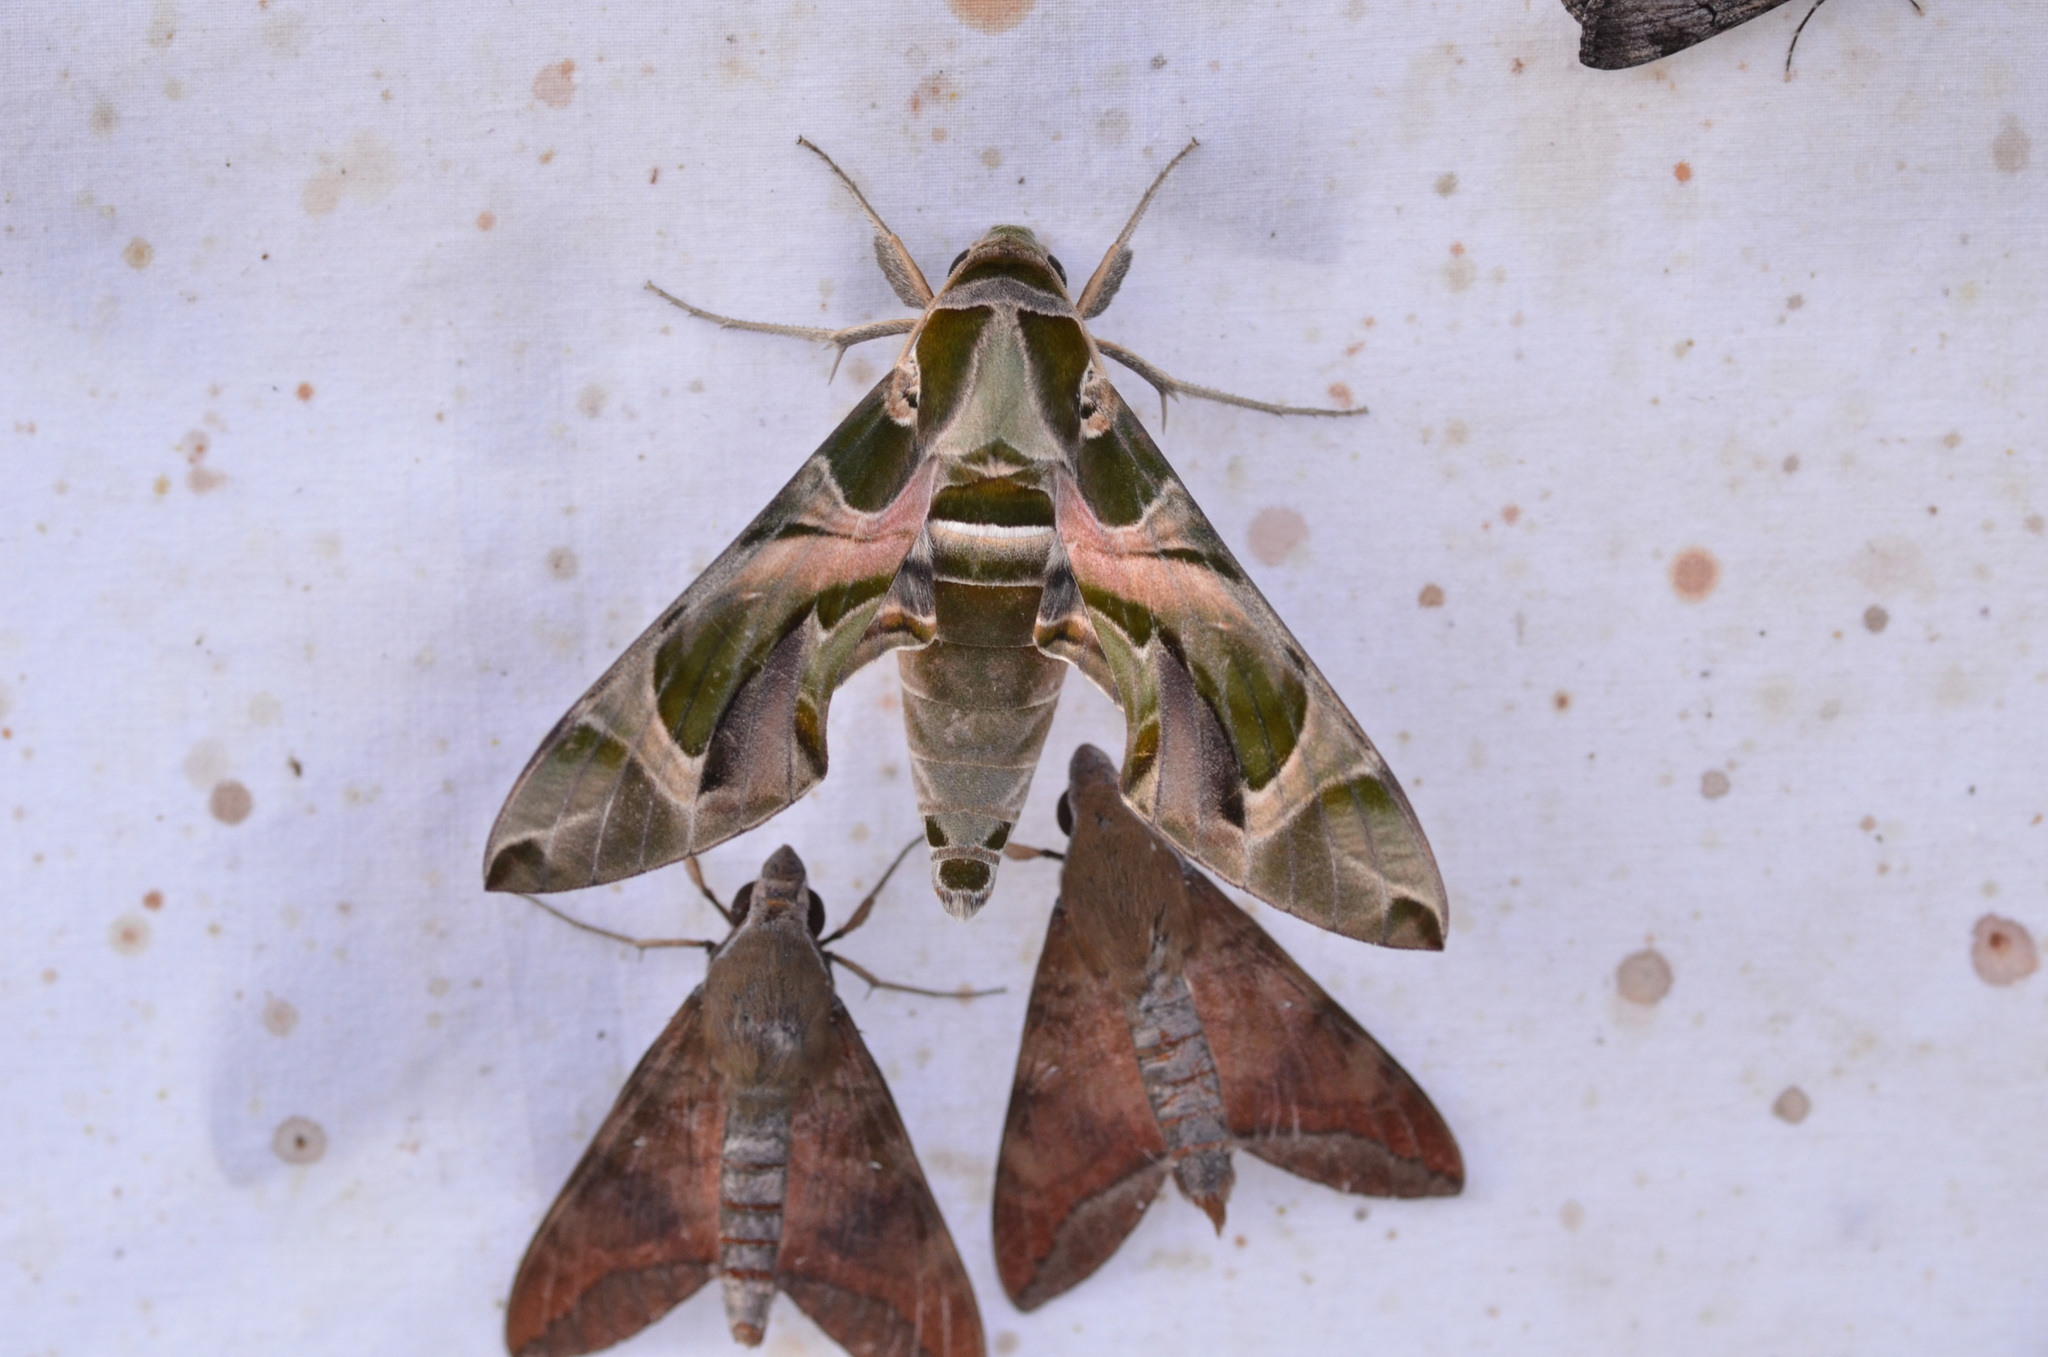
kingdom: Animalia
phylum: Arthropoda
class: Insecta
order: Lepidoptera
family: Sphingidae
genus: Daphnis
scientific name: Daphnis nerii
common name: Oleander hawk-moth
